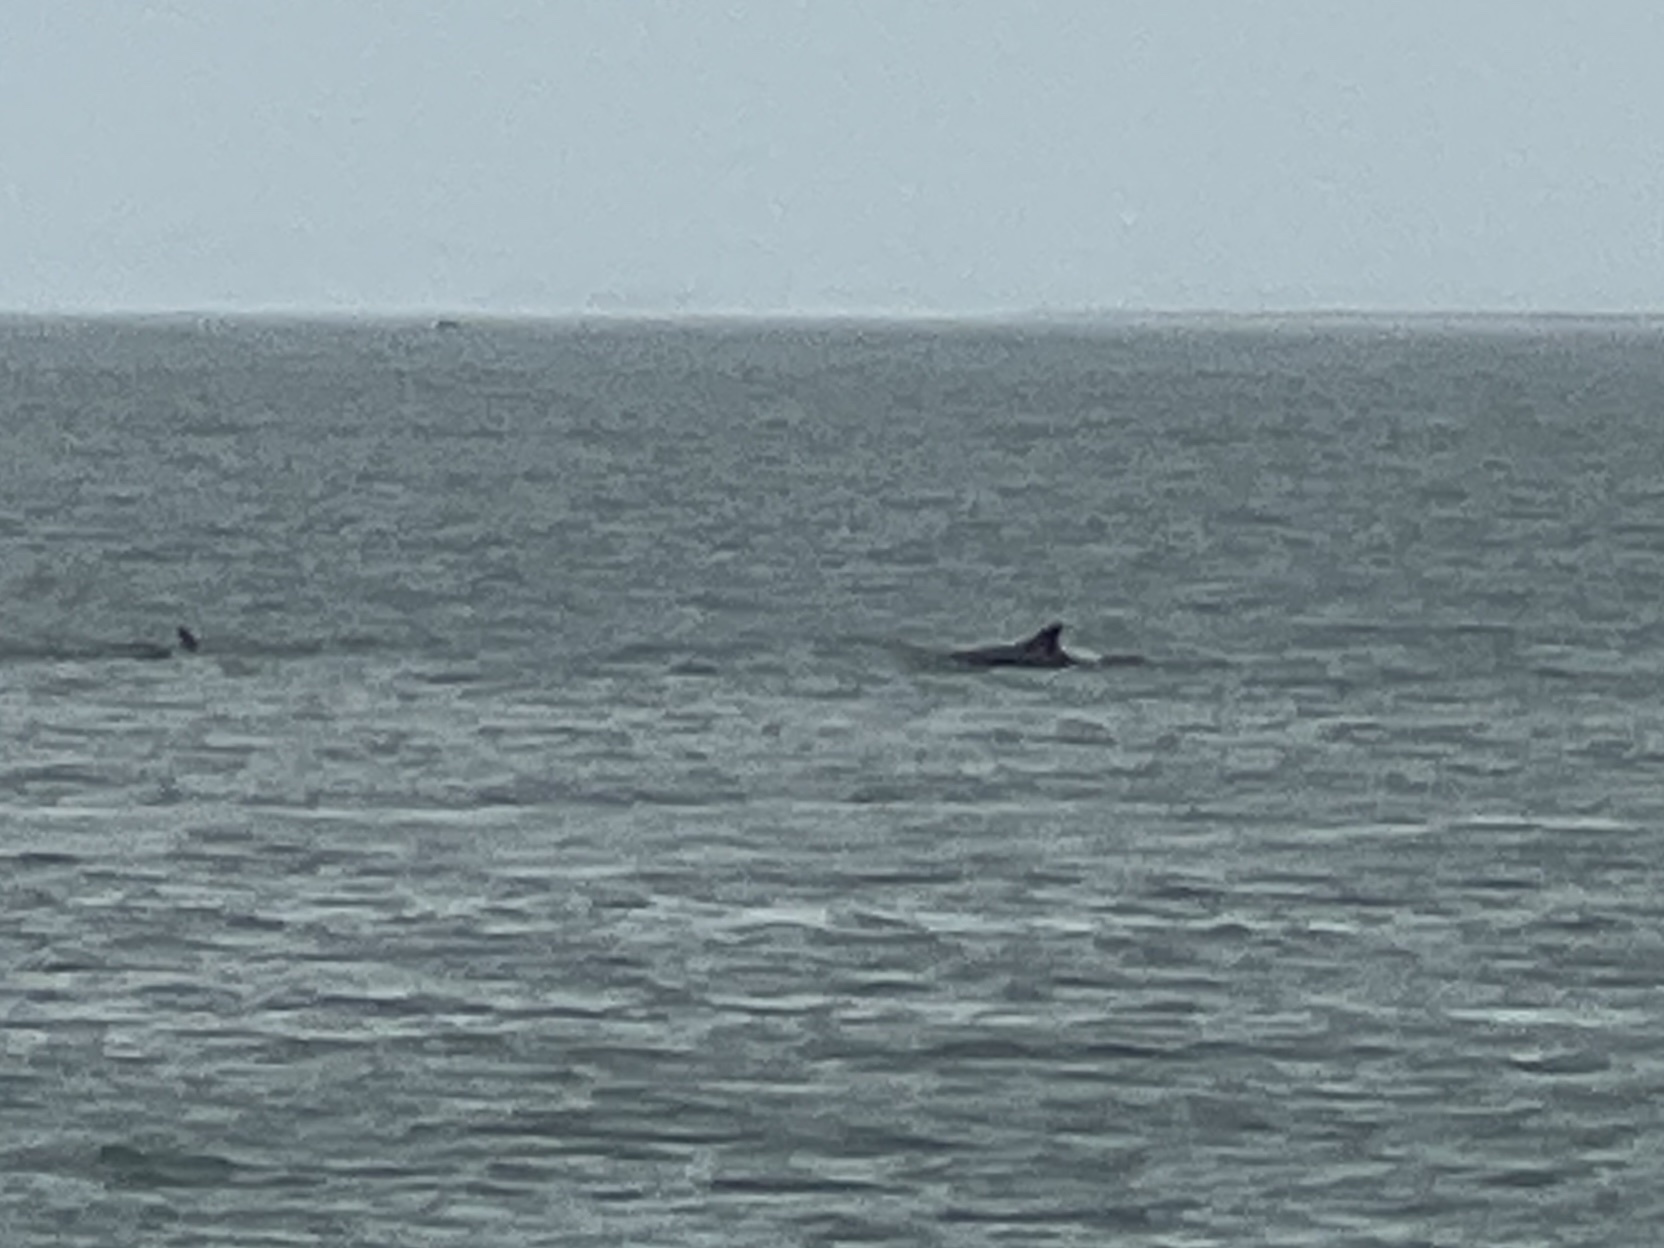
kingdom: Animalia
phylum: Chordata
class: Mammalia
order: Cetacea
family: Delphinidae
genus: Tursiops
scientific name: Tursiops truncatus
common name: Bottlenose dolphin
